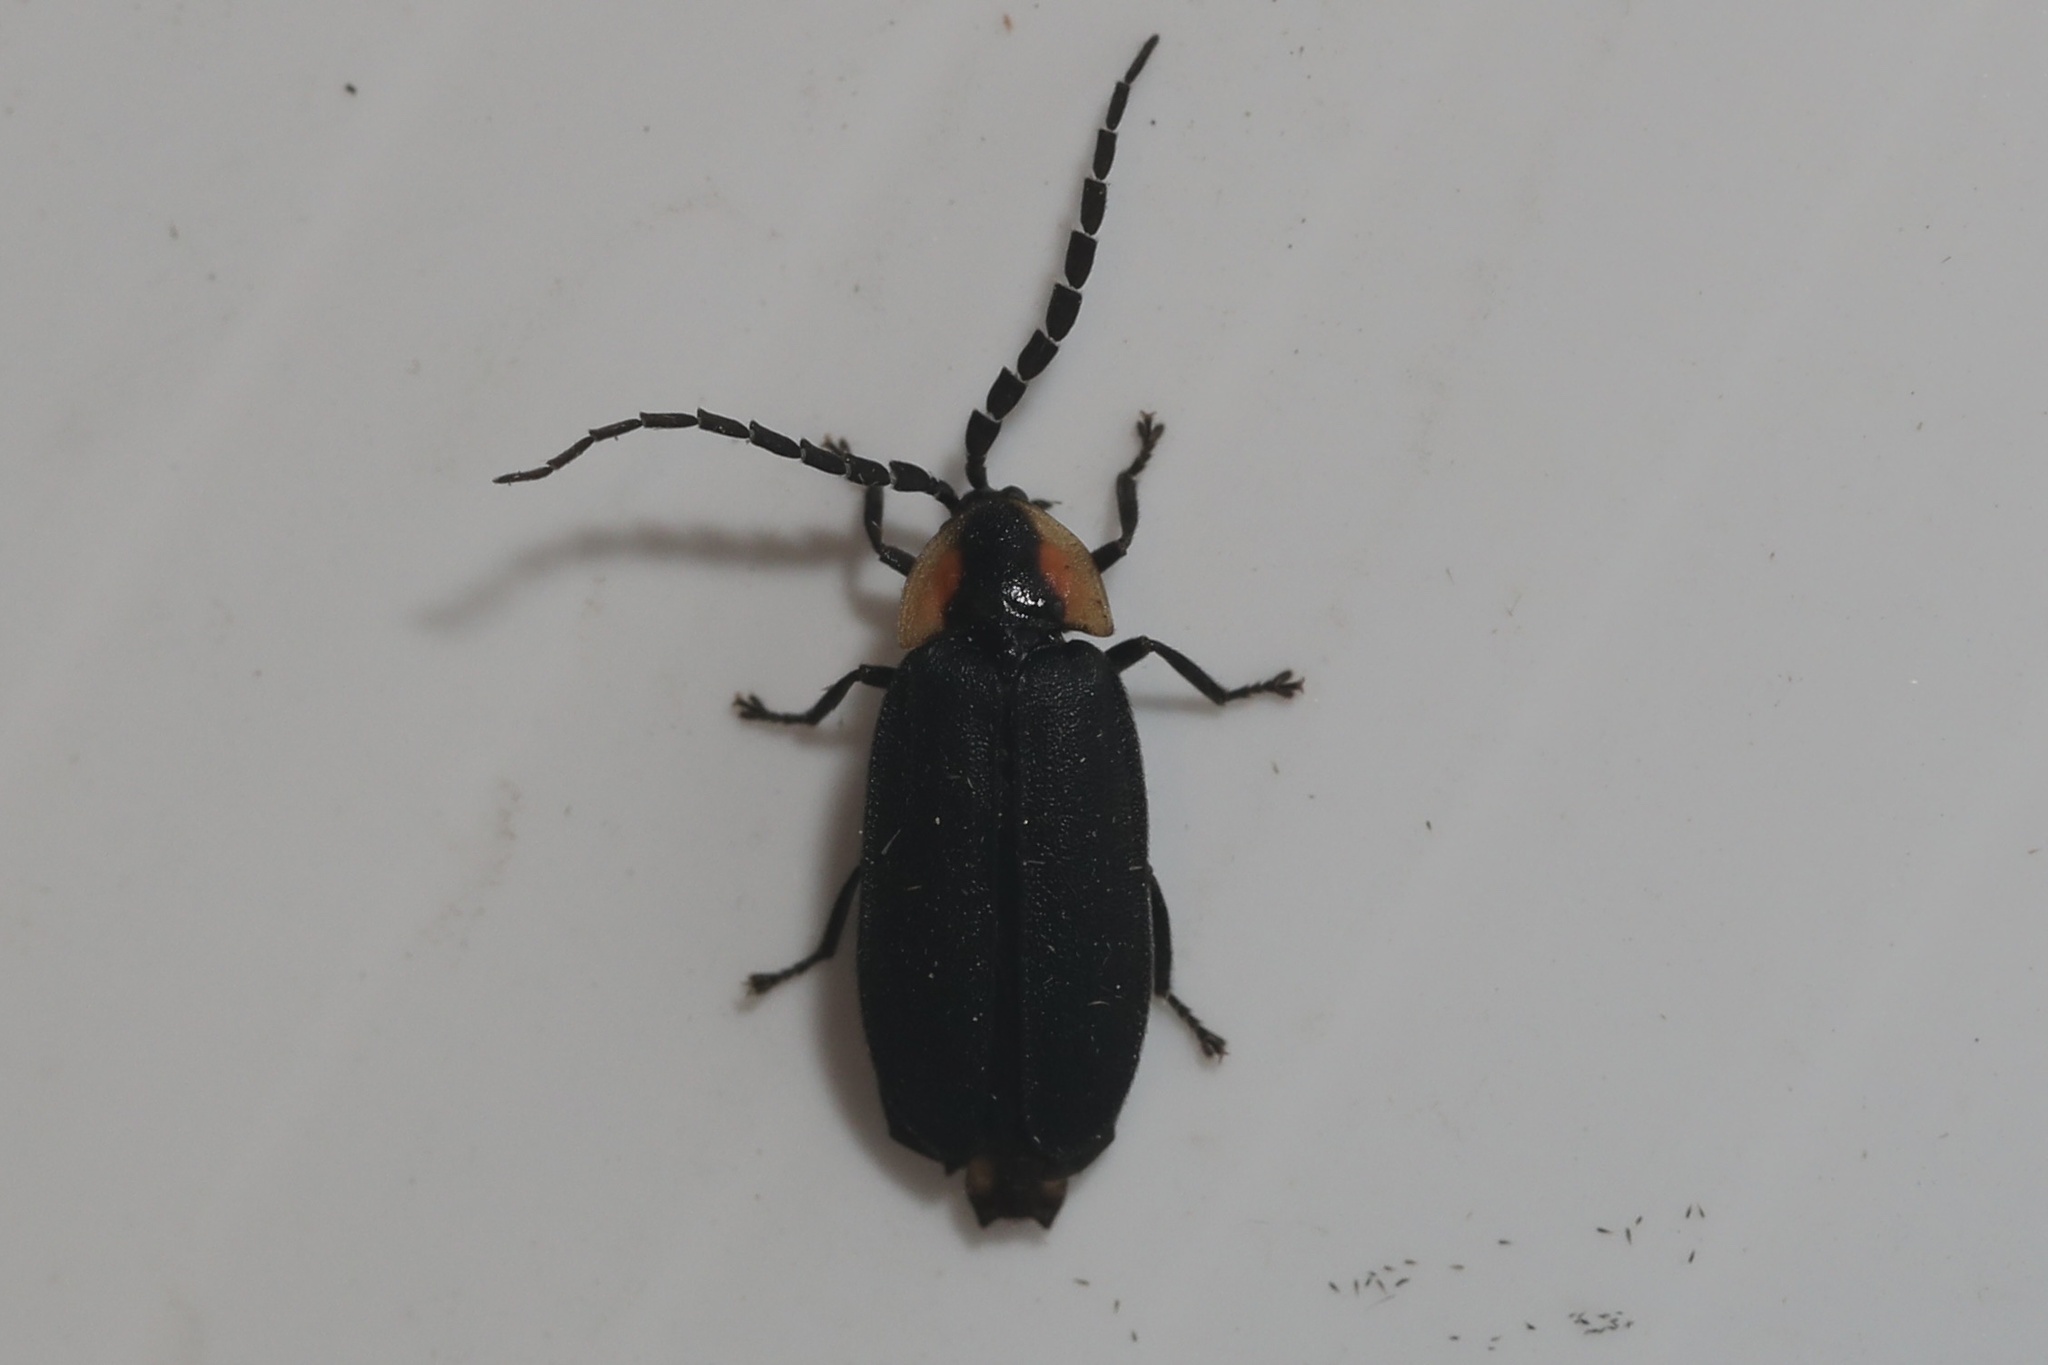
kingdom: Animalia
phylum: Arthropoda
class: Insecta
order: Coleoptera
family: Lampyridae
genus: Lucidota
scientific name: Lucidota atra
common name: Black firefly
